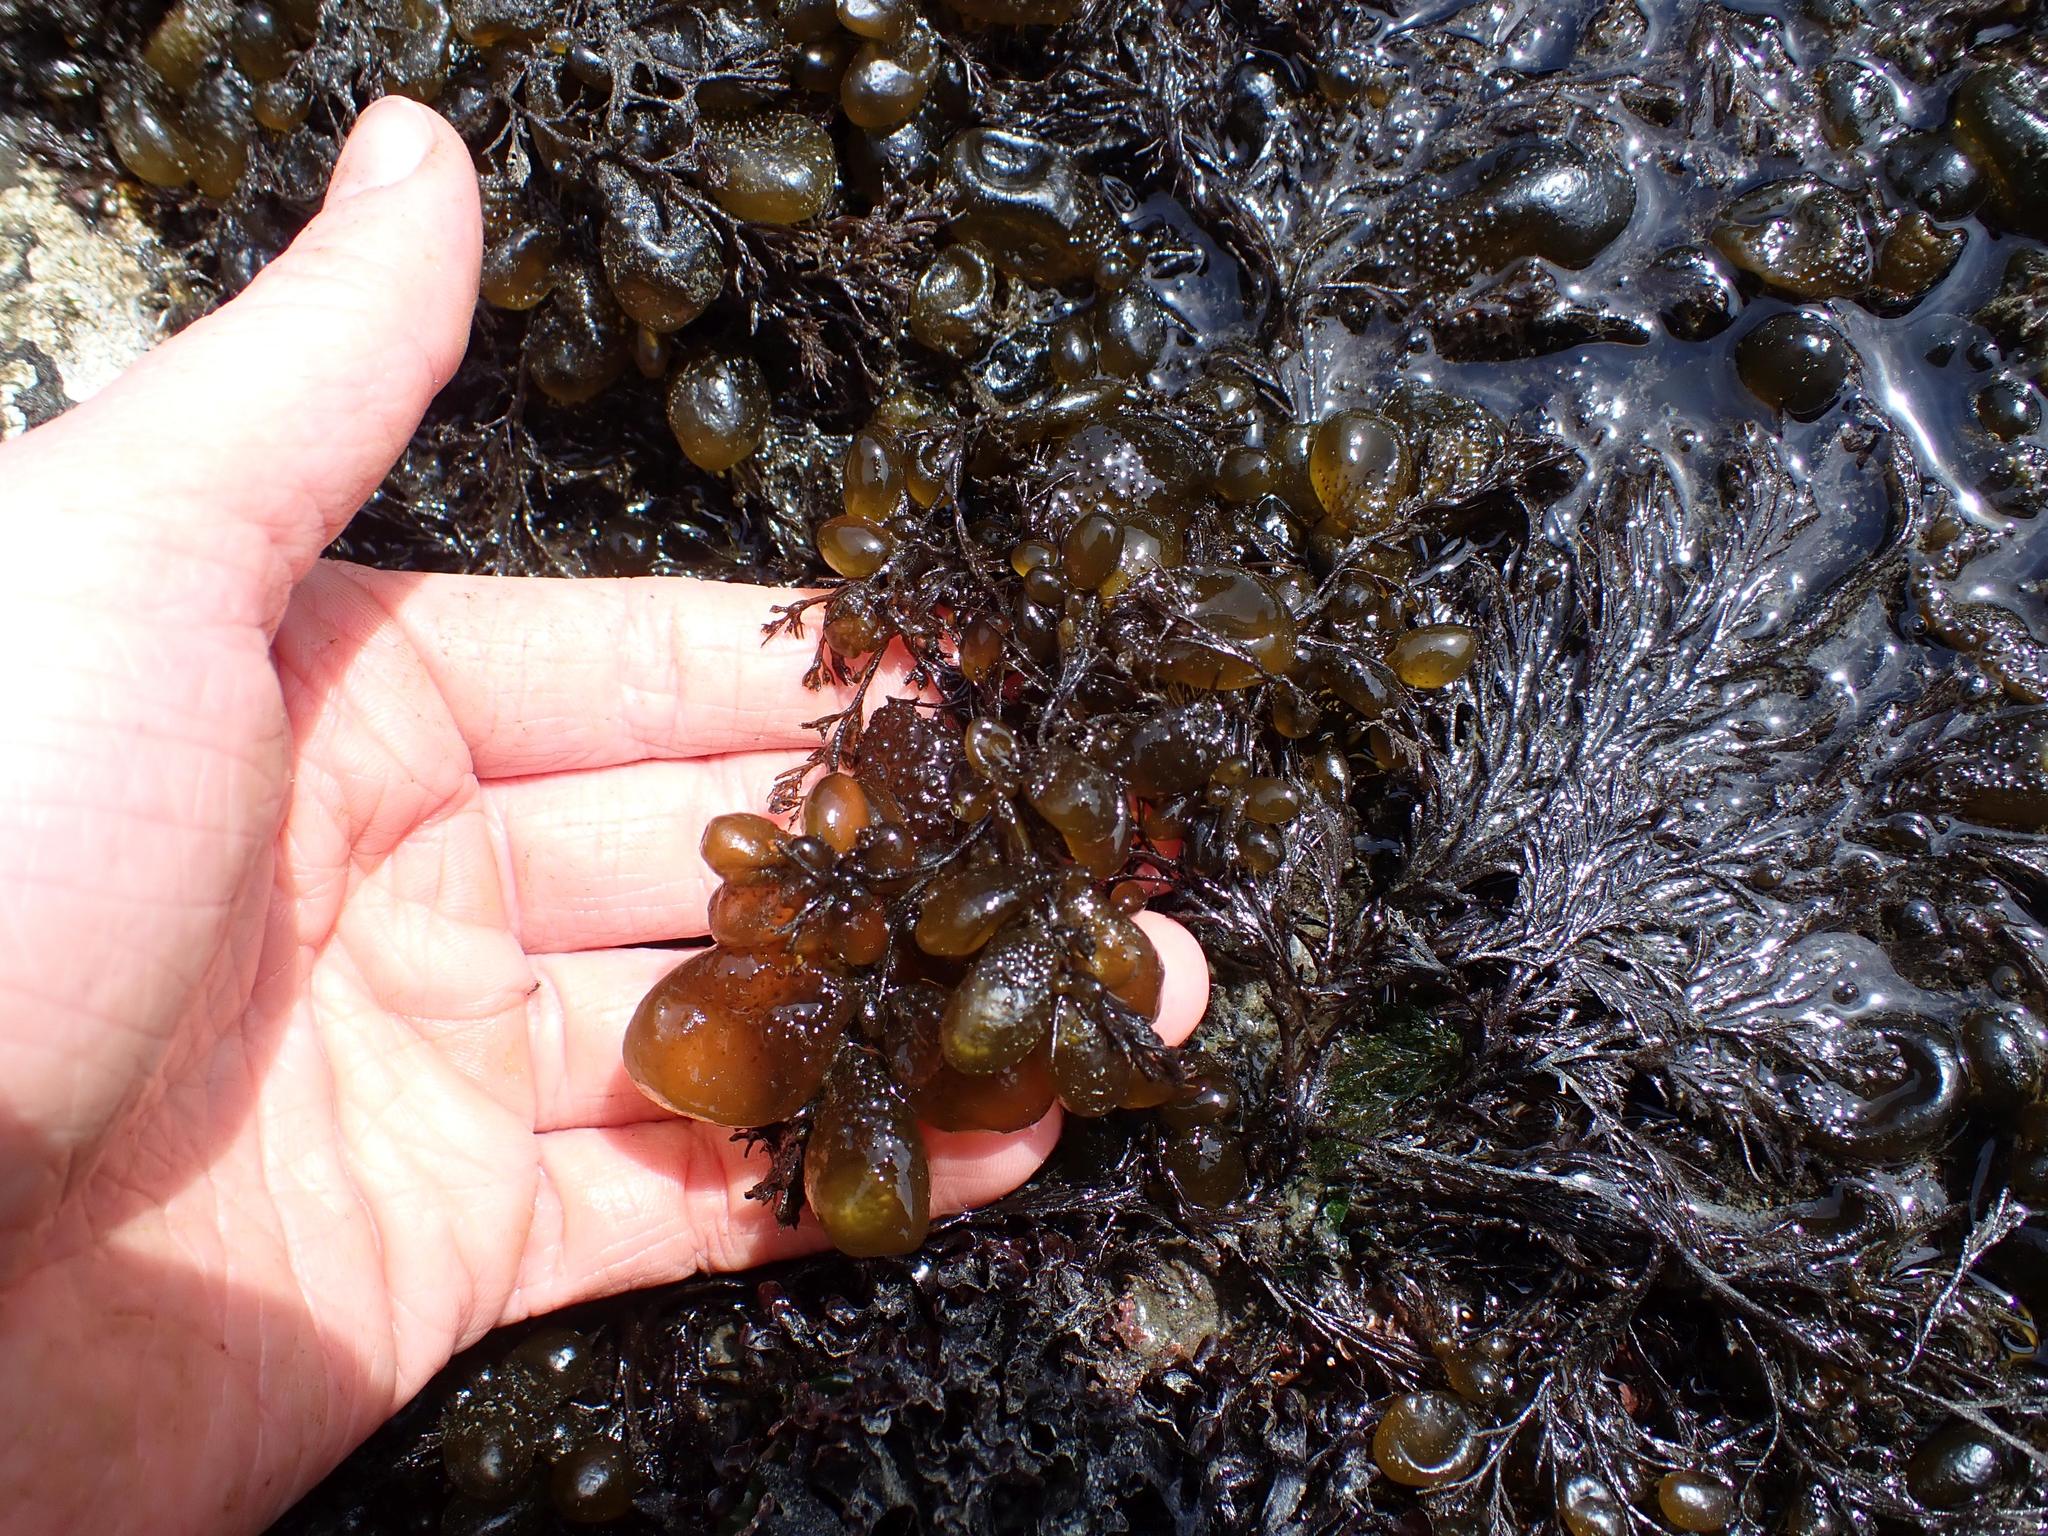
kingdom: Chromista
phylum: Ochrophyta
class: Phaeophyceae
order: Dictyosiphonales
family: Punctariaceae
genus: Soranthera
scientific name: Soranthera ulvoidea
